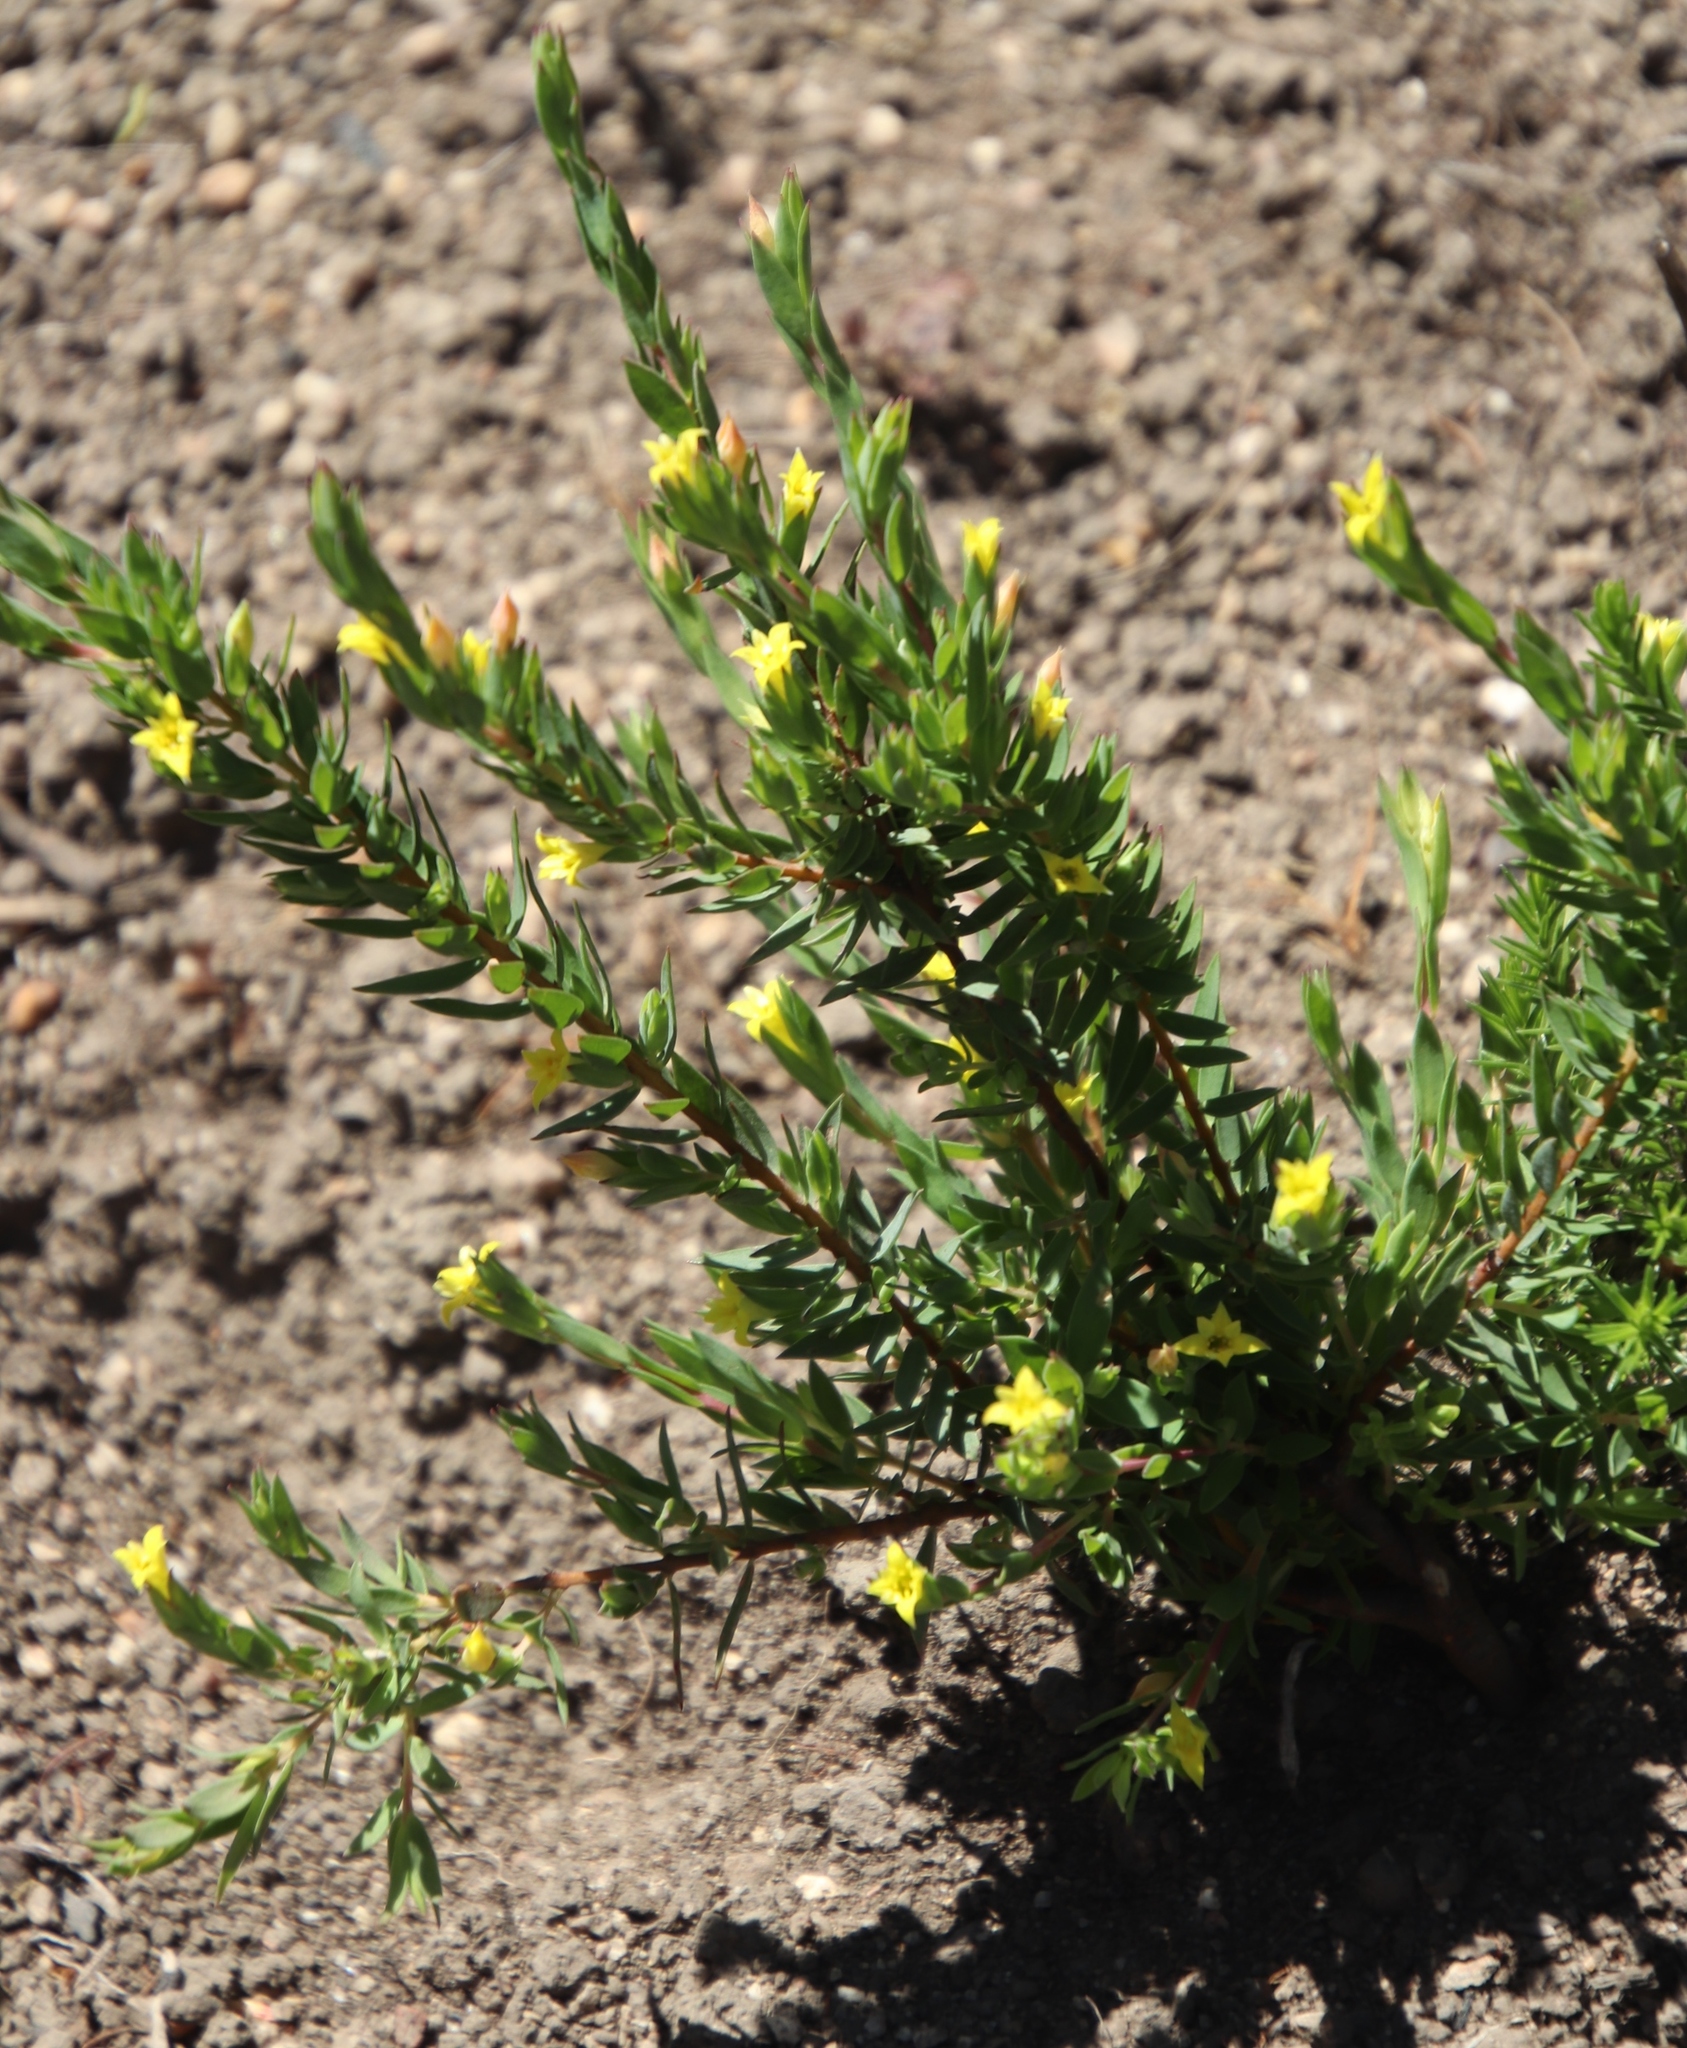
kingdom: Plantae
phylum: Tracheophyta
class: Magnoliopsida
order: Malvales
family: Thymelaeaceae
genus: Gnidia
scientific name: Gnidia juniperifolia
